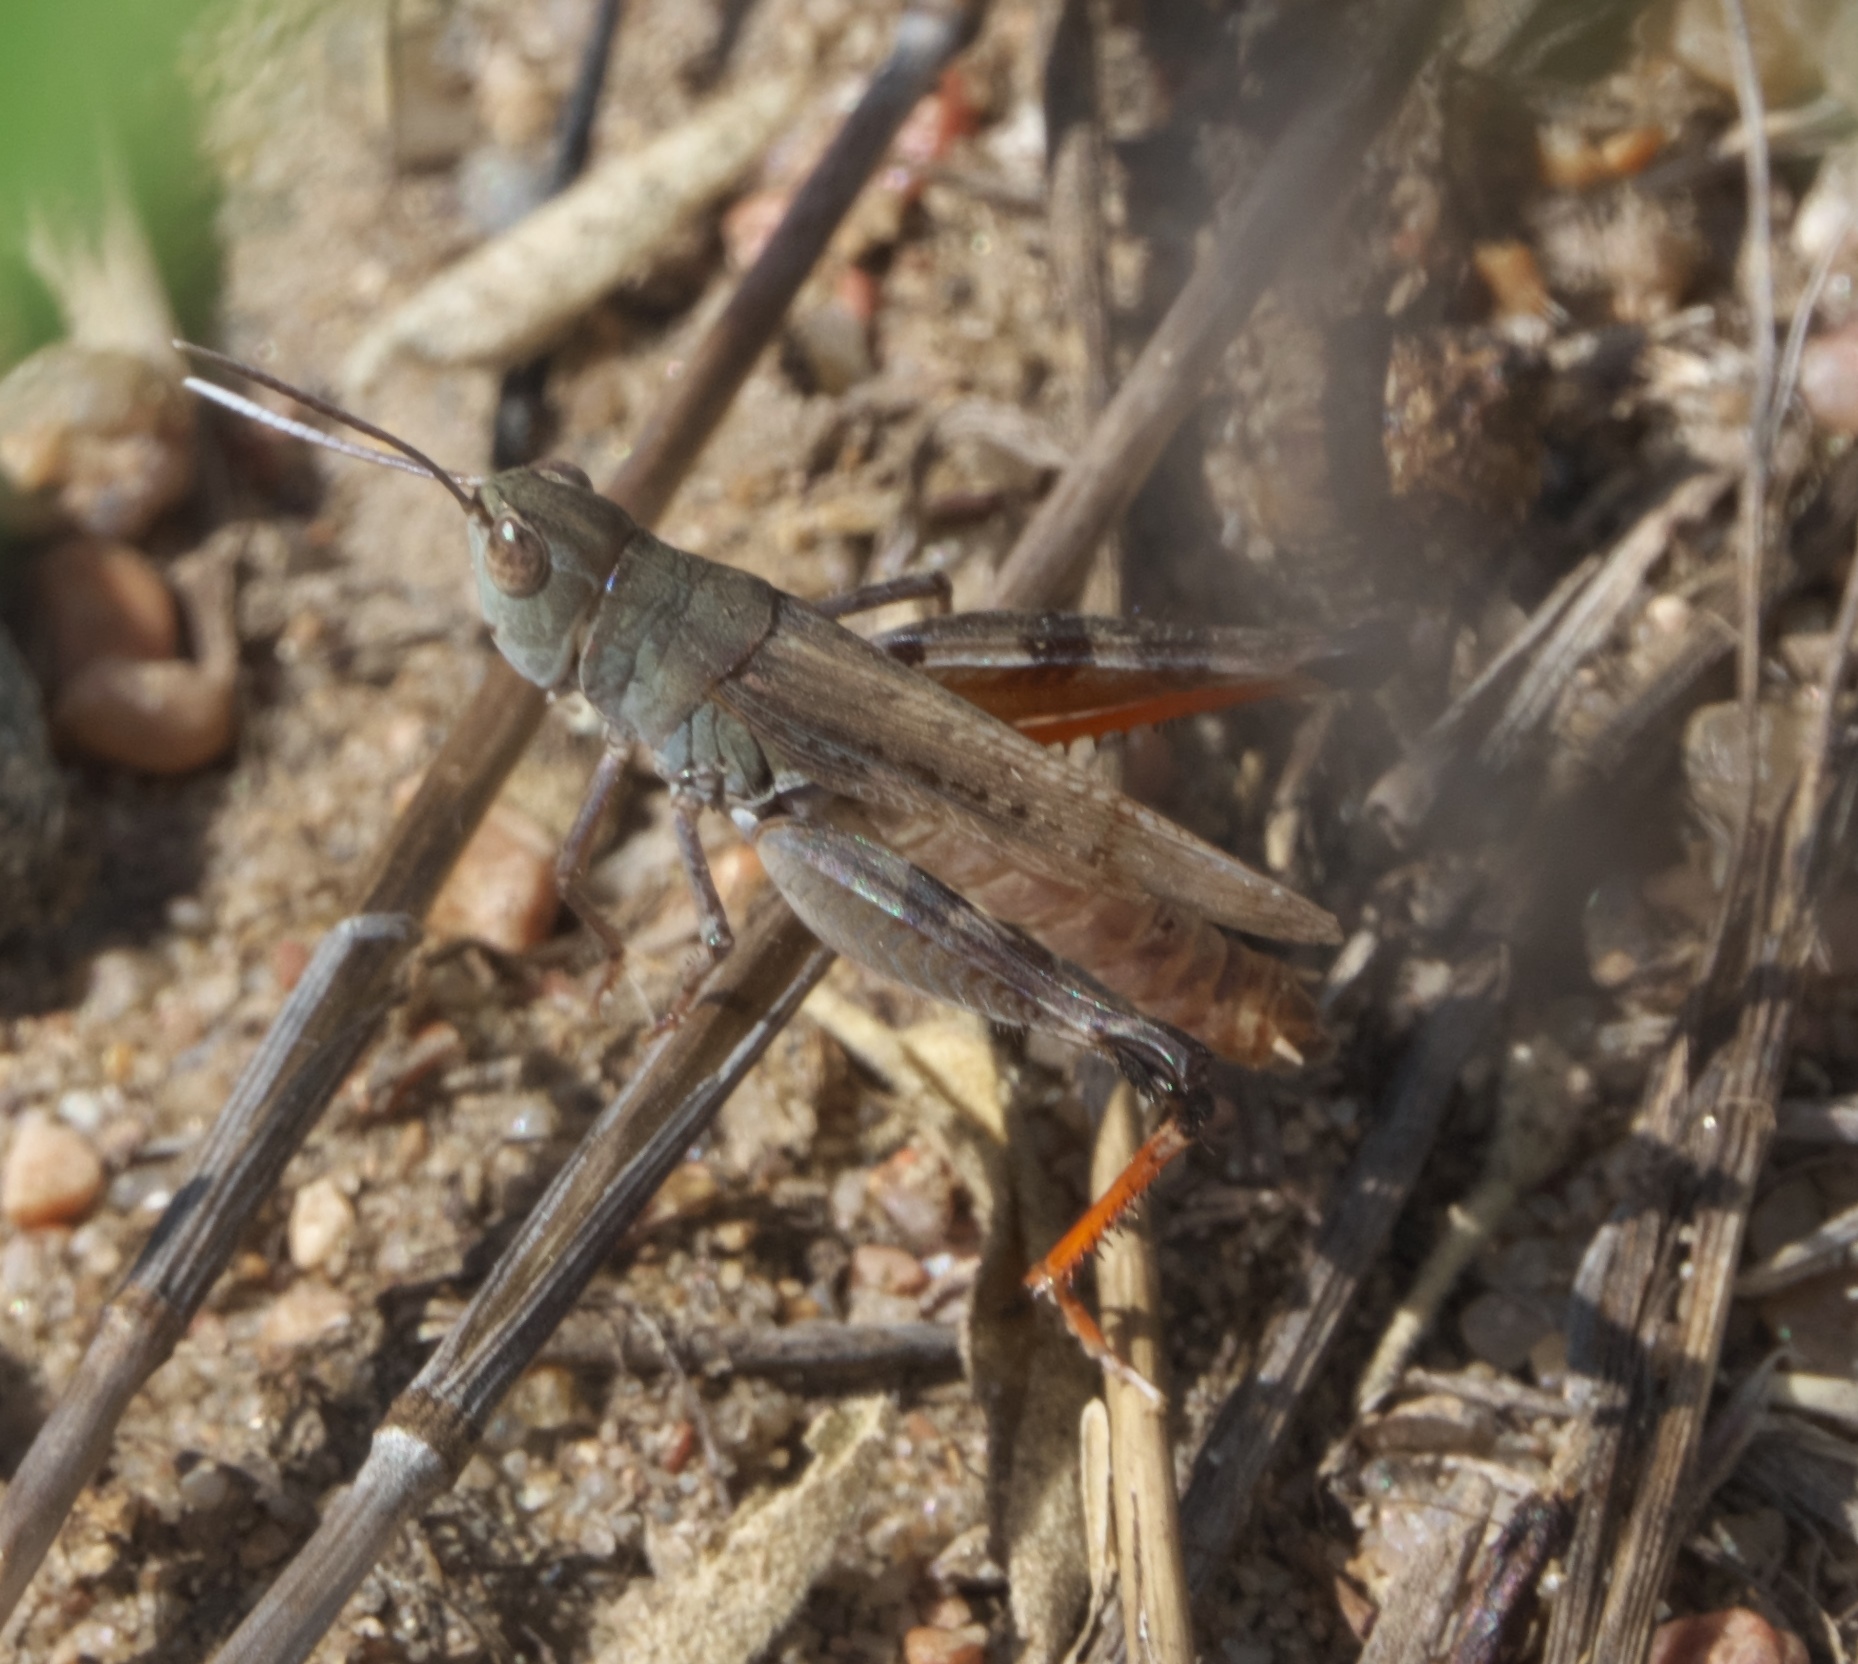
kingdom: Animalia
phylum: Arthropoda
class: Insecta
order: Orthoptera
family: Acrididae
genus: Ageneotettix
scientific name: Ageneotettix deorum
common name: White-whiskered grasshopper
